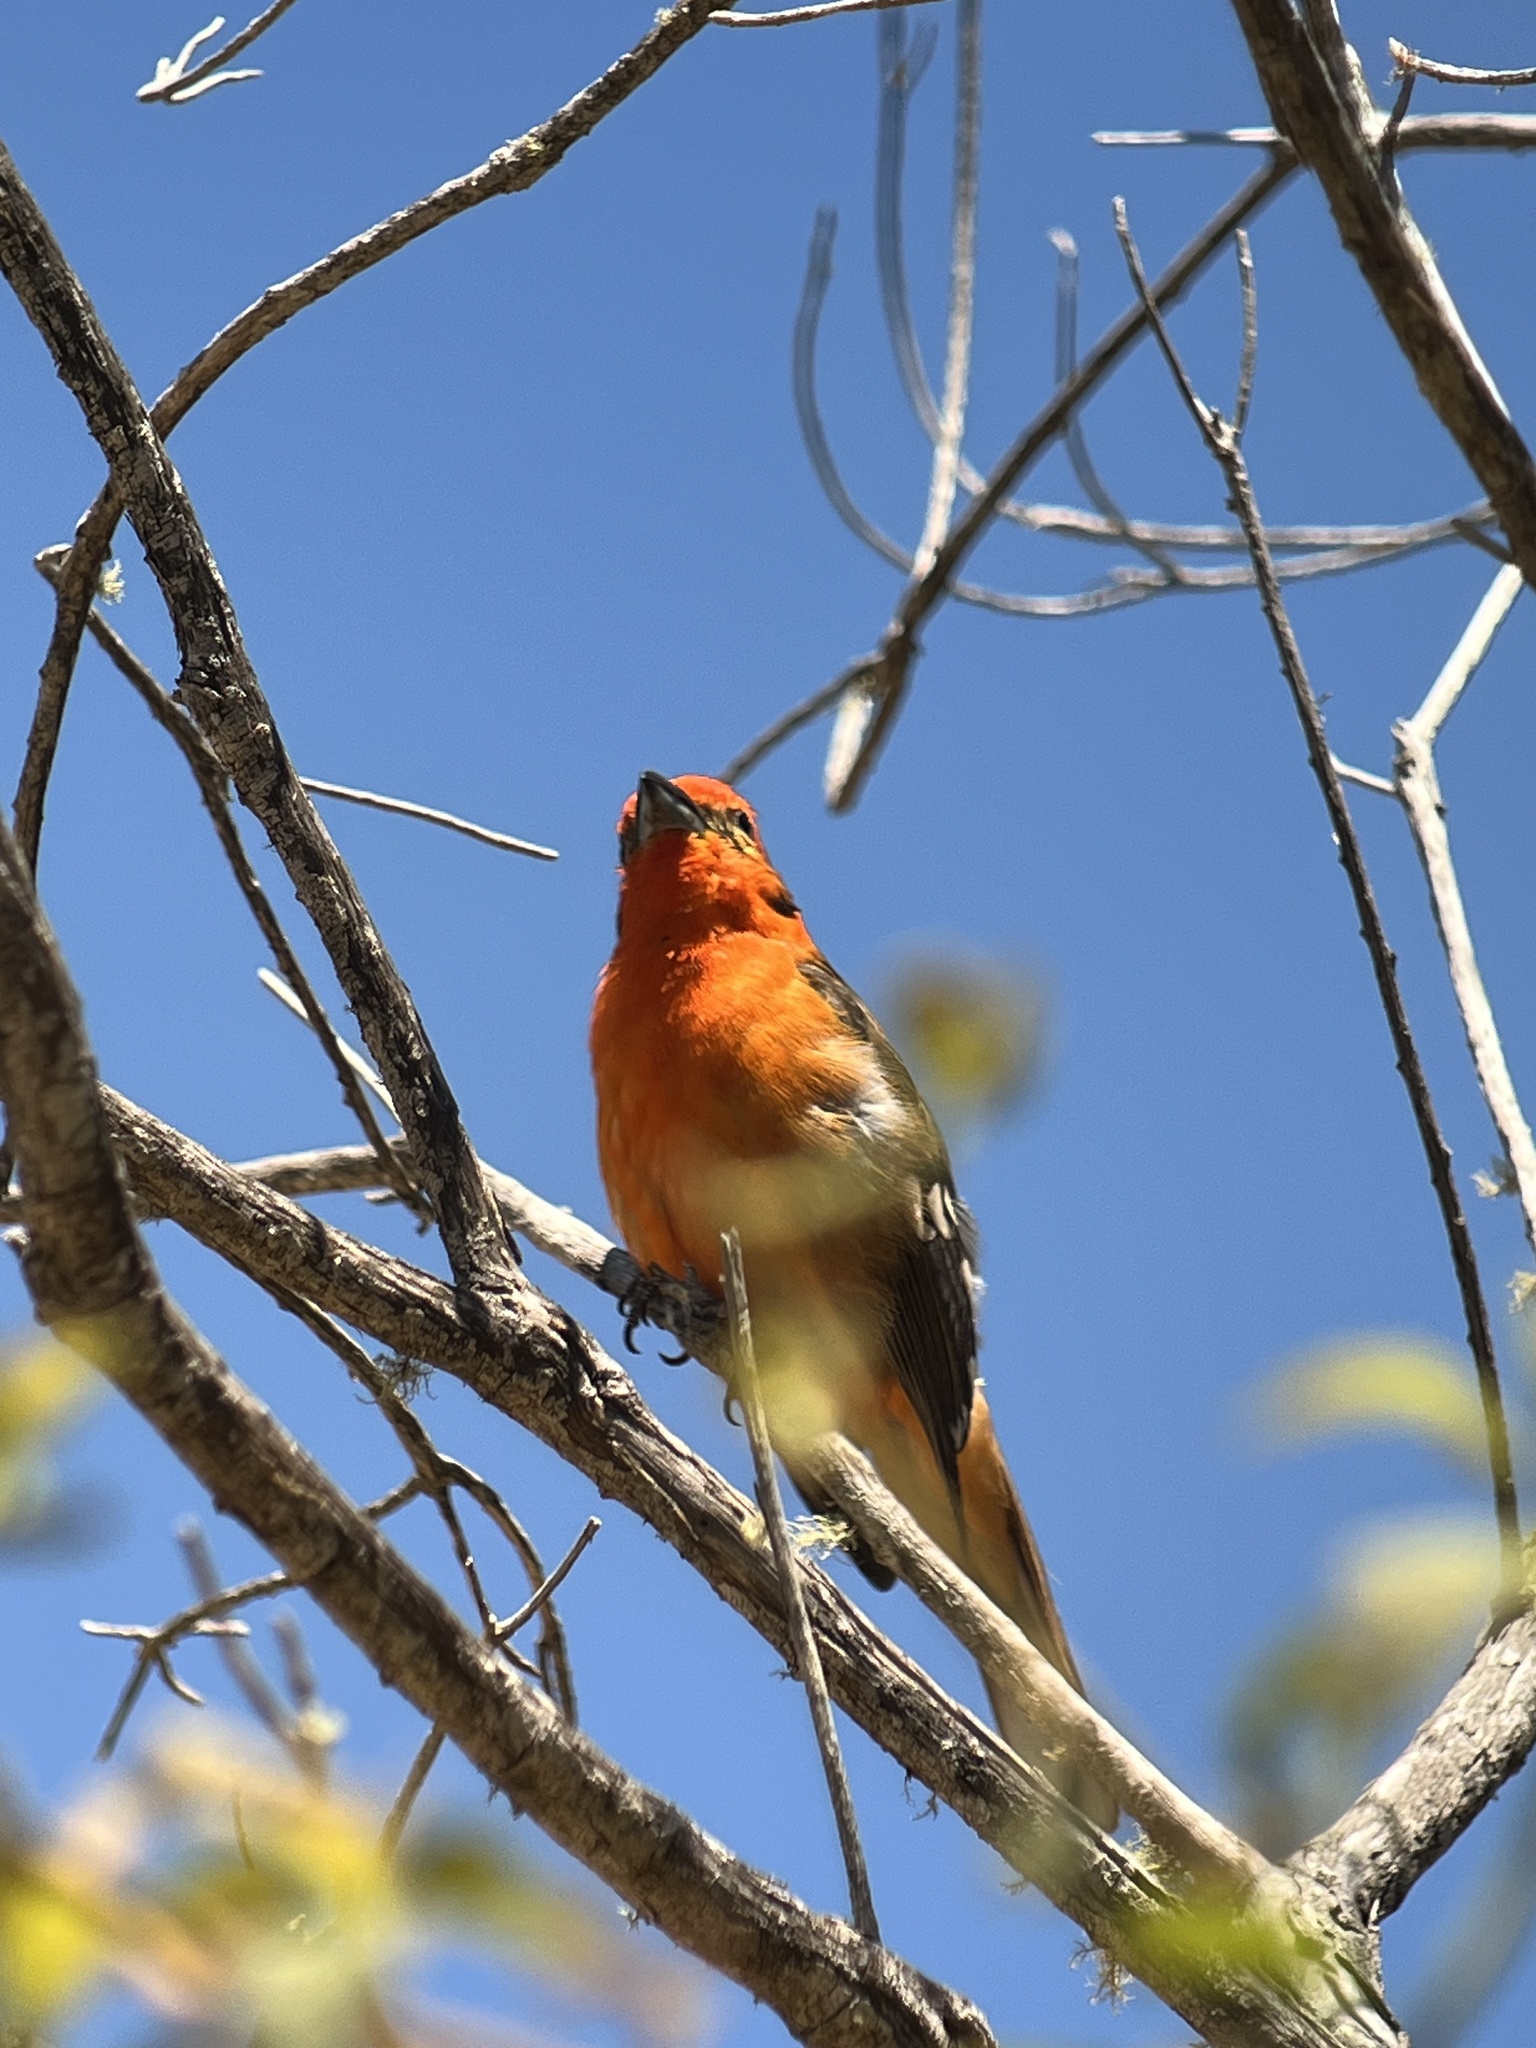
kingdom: Animalia
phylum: Chordata
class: Aves
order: Passeriformes
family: Cardinalidae
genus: Piranga
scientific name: Piranga bidentata
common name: Flame-colored tanager
